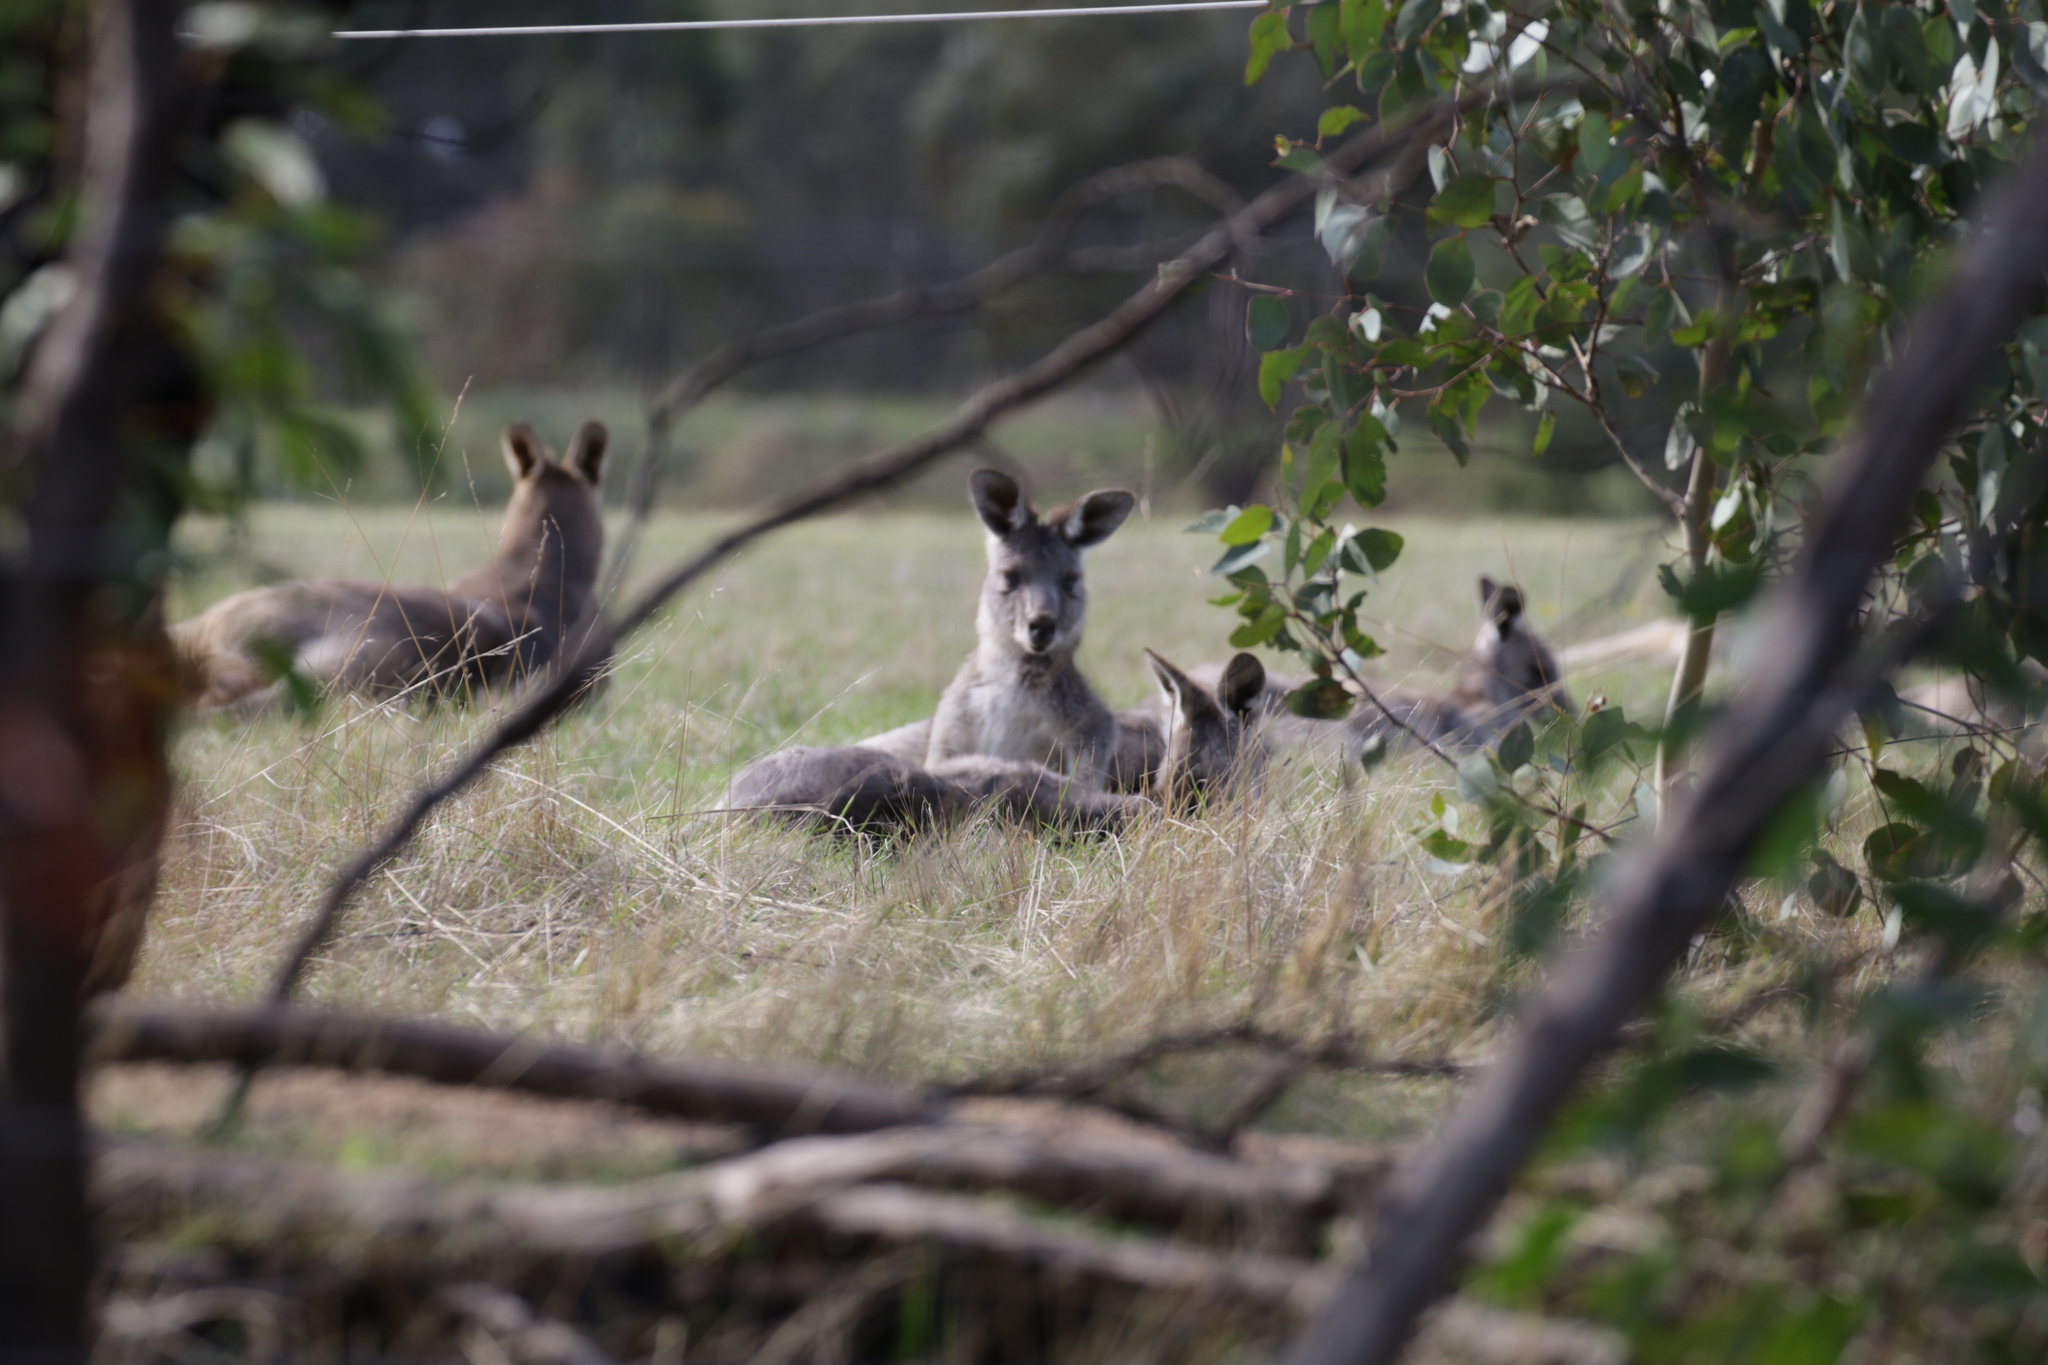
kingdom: Animalia
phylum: Chordata
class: Mammalia
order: Diprotodontia
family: Macropodidae
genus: Macropus
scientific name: Macropus giganteus
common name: Eastern grey kangaroo
